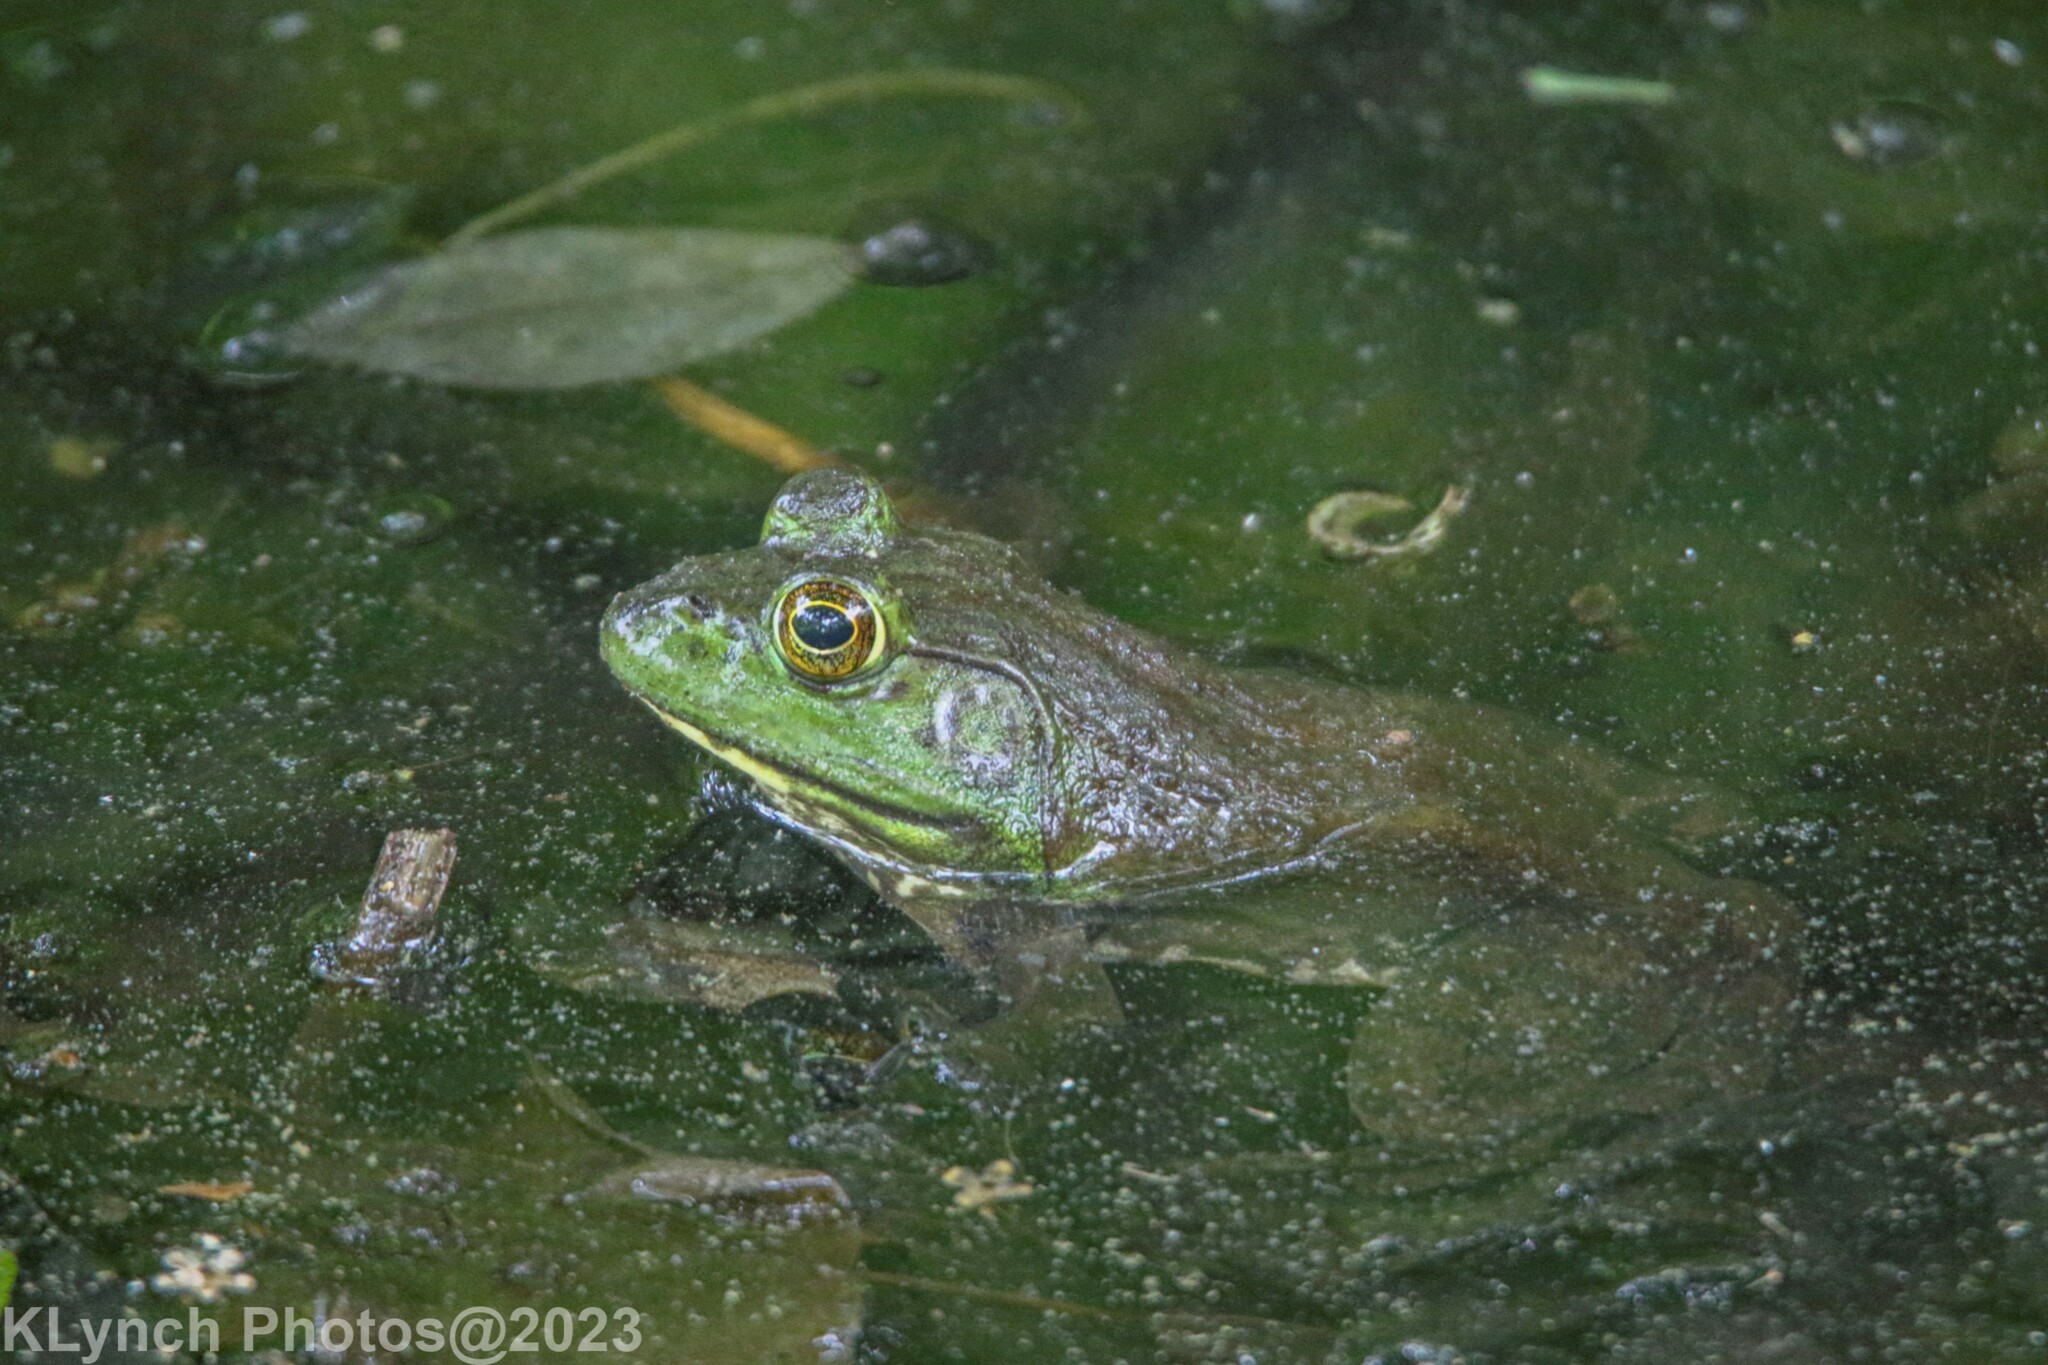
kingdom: Animalia
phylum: Chordata
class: Amphibia
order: Anura
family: Ranidae
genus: Lithobates
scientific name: Lithobates catesbeianus
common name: American bullfrog
